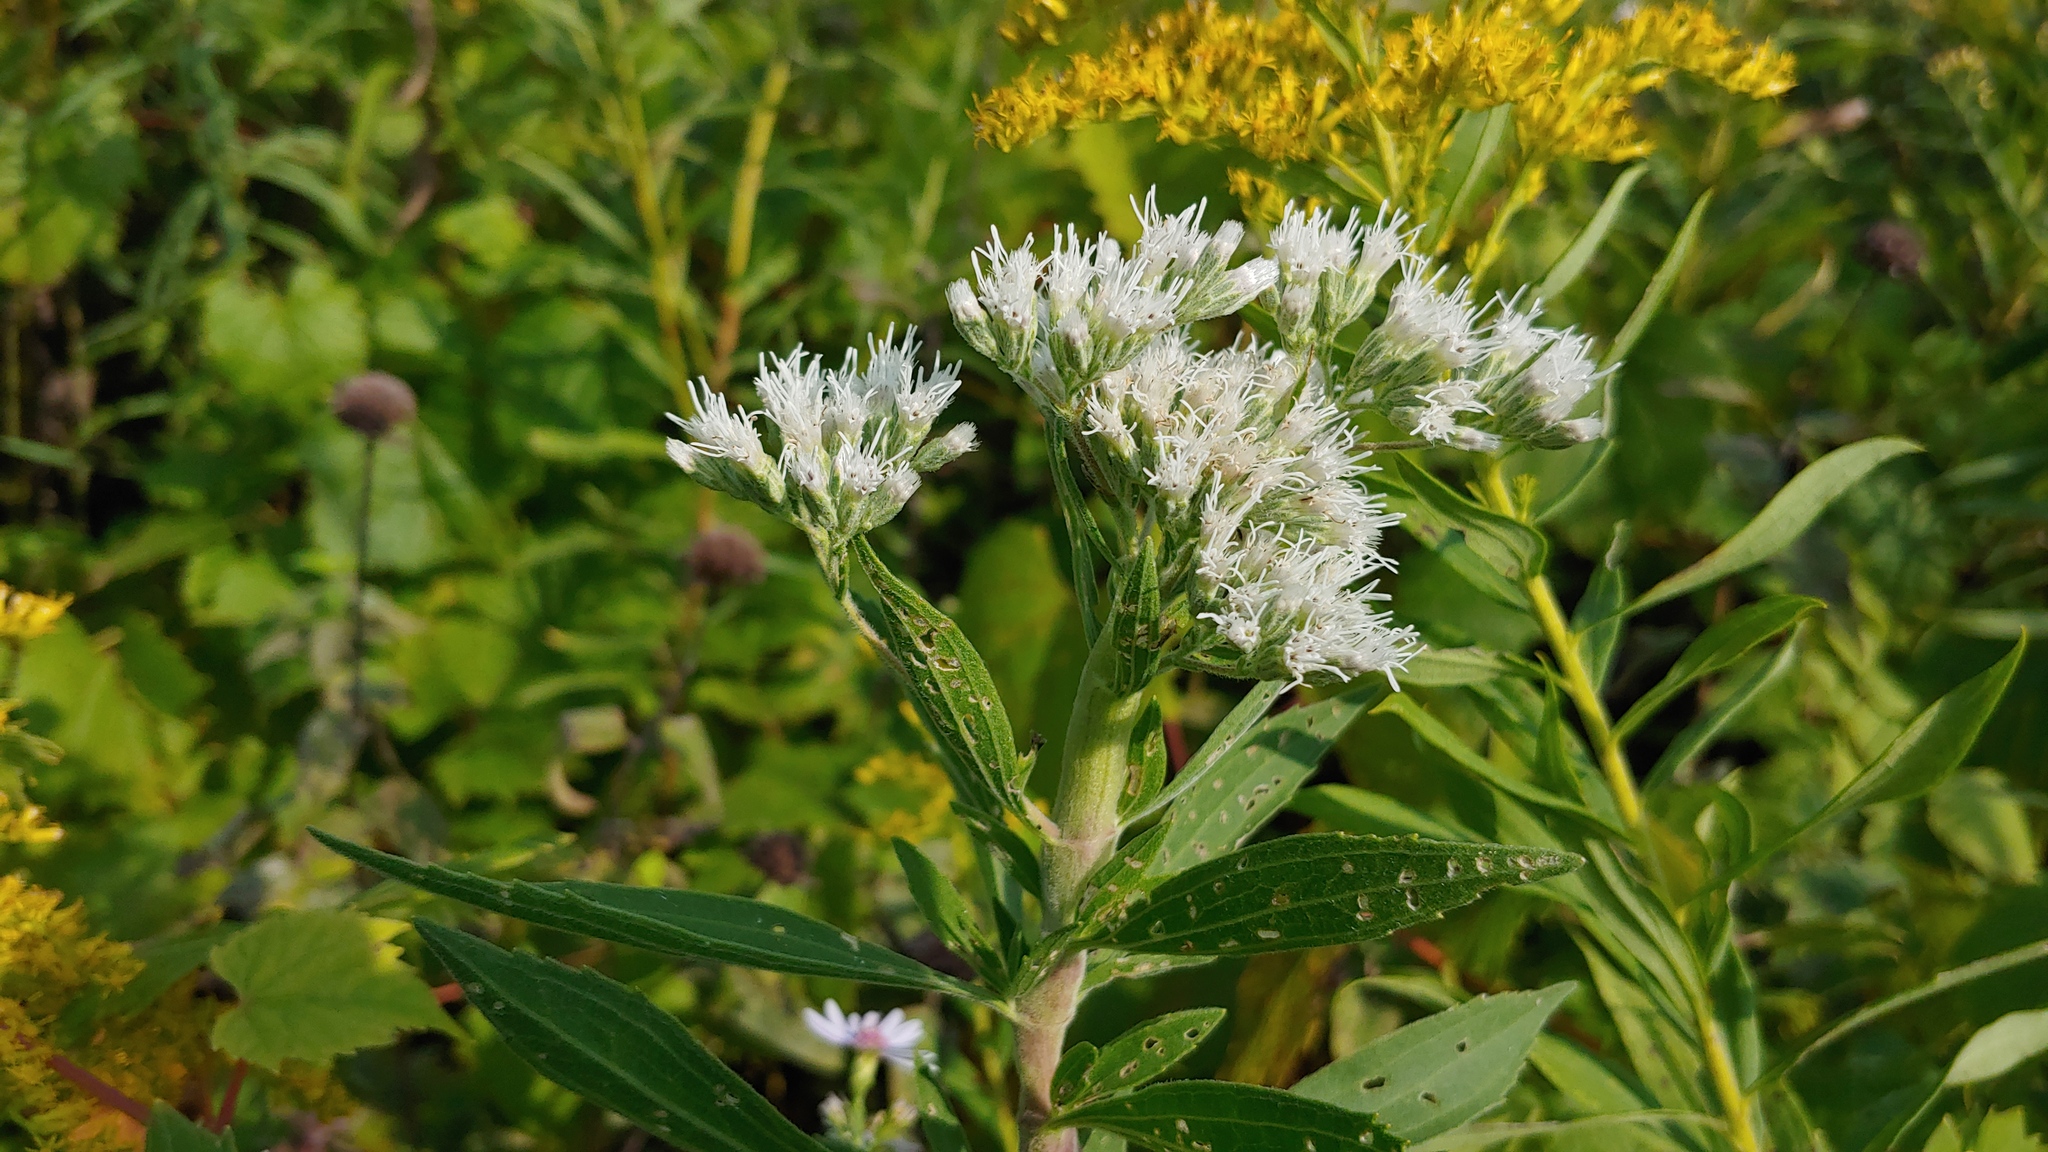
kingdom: Plantae
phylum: Tracheophyta
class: Magnoliopsida
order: Asterales
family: Asteraceae
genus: Eupatorium
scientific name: Eupatorium altissimum
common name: Tall thoroughwort
